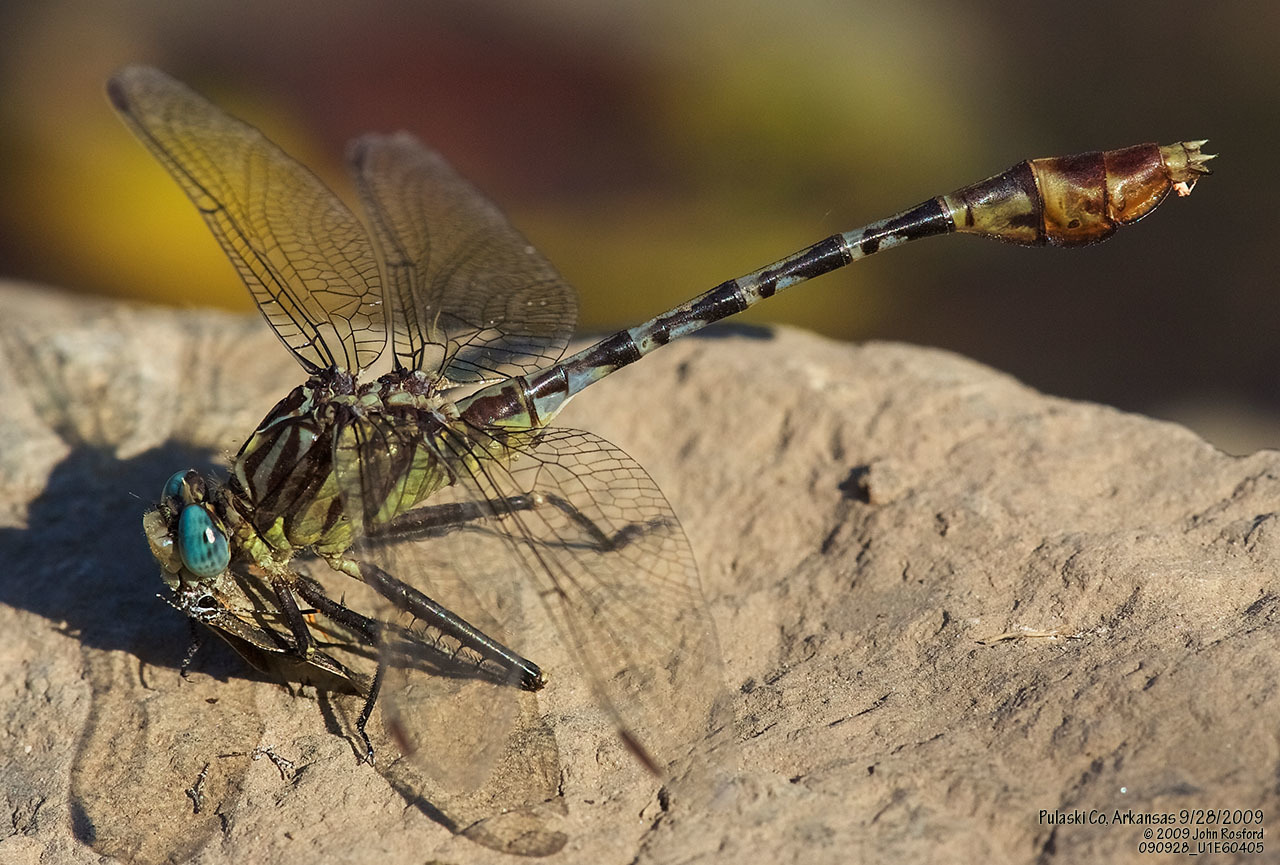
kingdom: Animalia
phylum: Arthropoda
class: Insecta
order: Odonata
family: Gomphidae
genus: Dromogomphus
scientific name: Dromogomphus spoliatus
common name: Flag-tailed spinyleg
